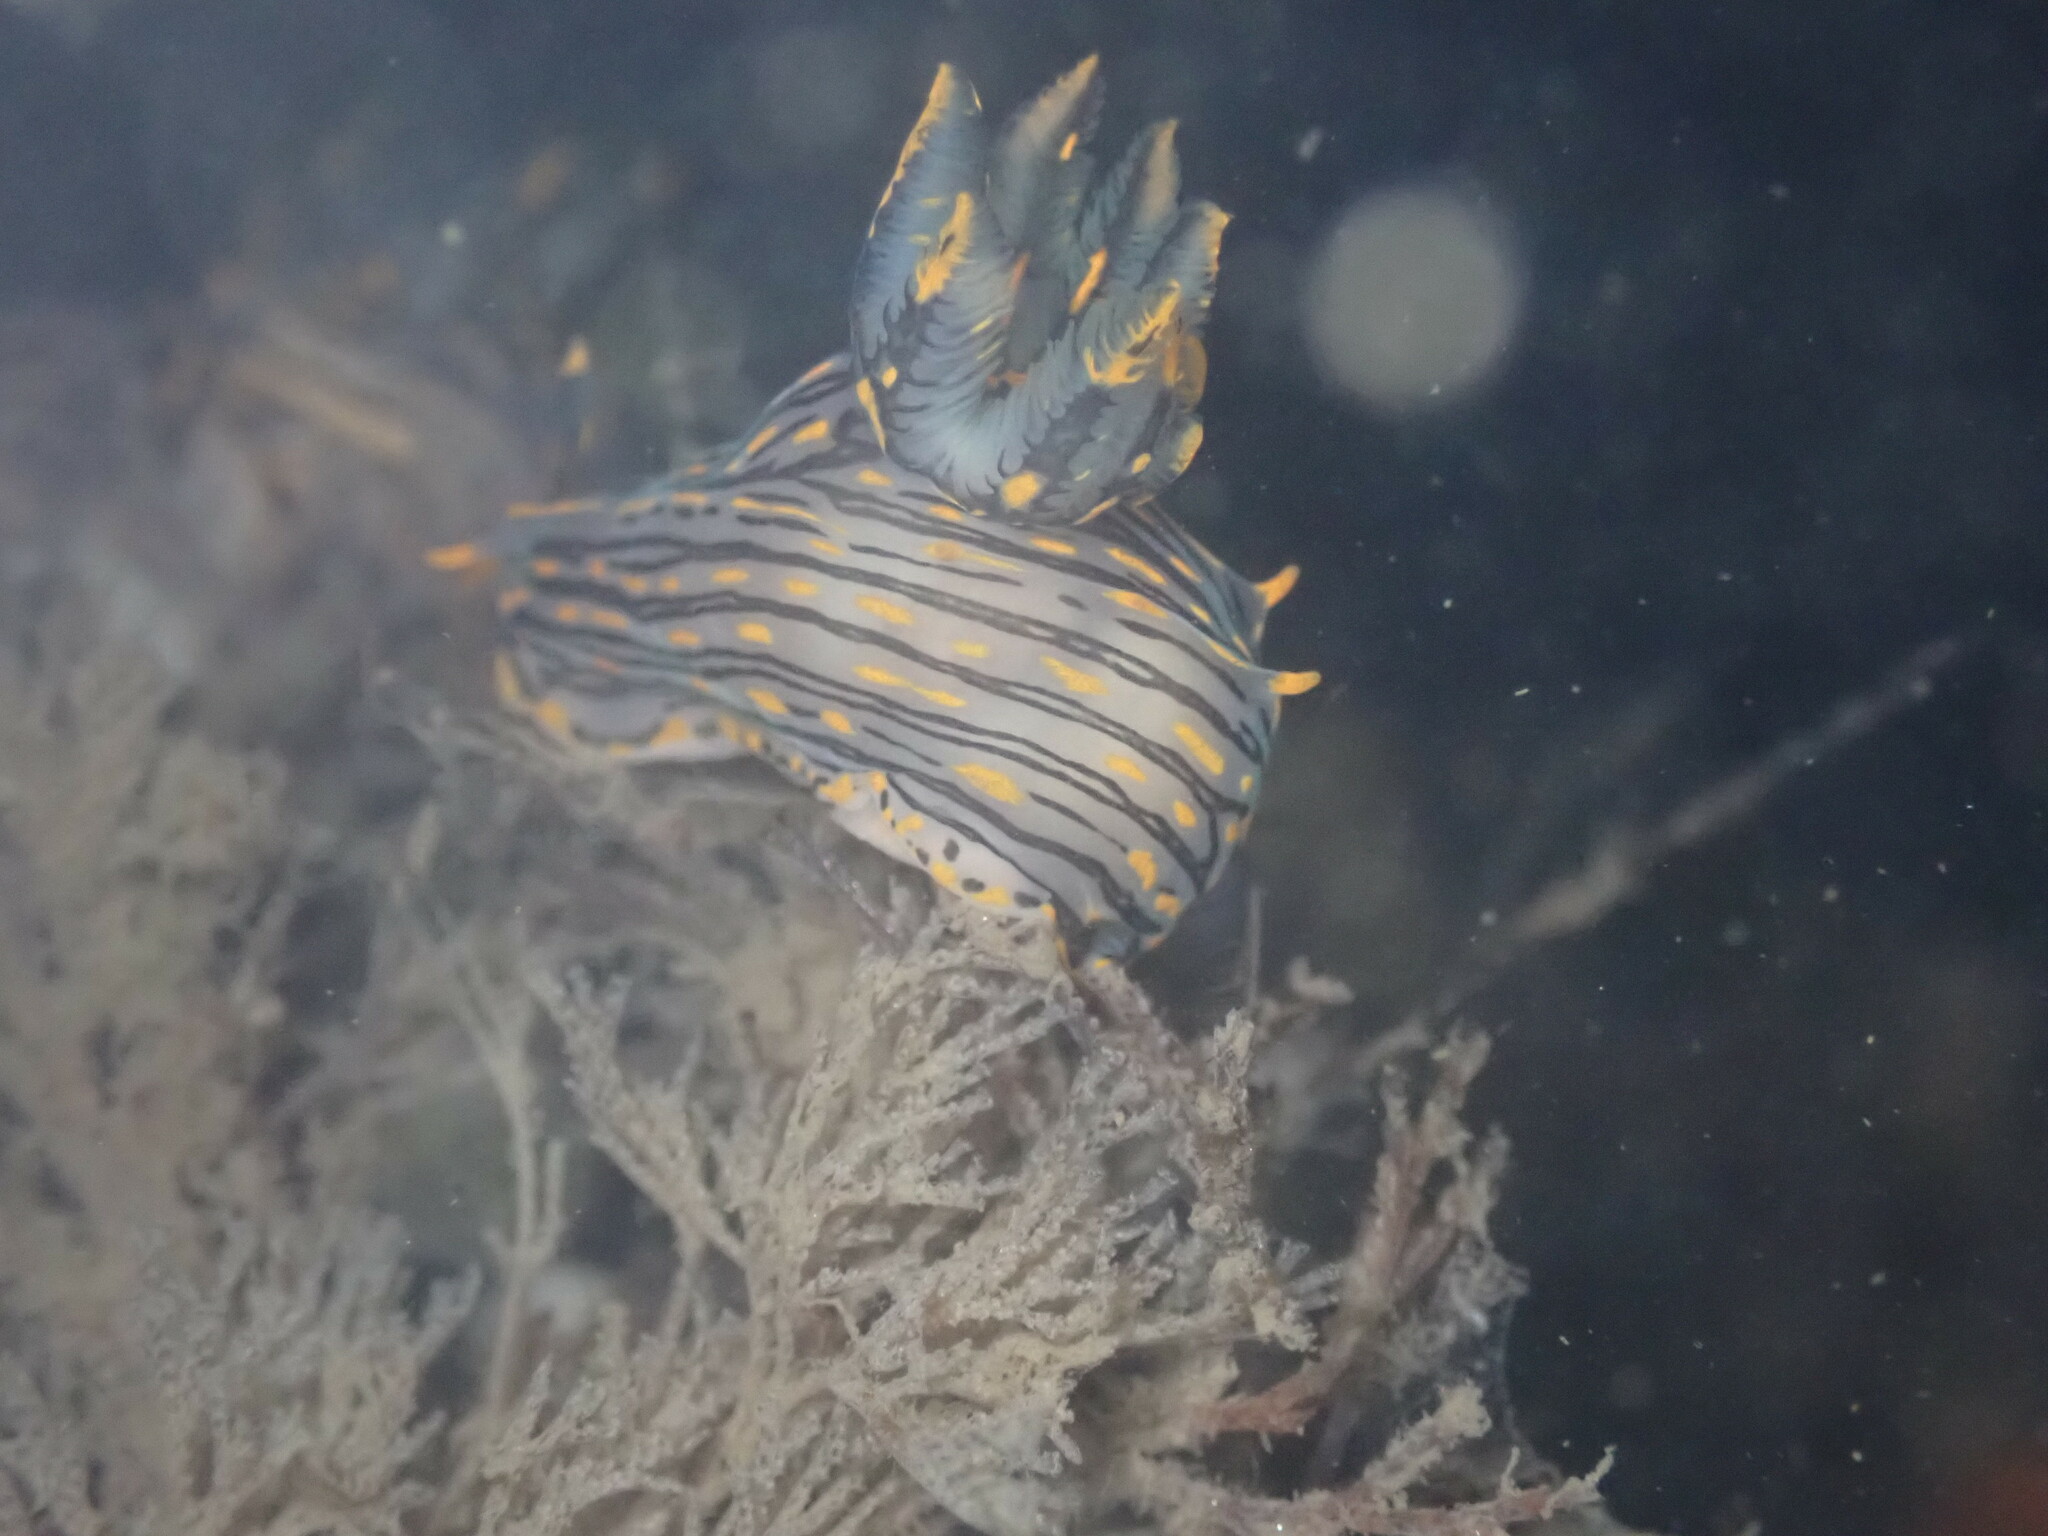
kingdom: Animalia
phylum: Mollusca
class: Gastropoda
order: Nudibranchia
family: Polyceridae
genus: Polycera
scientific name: Polycera atra
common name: Orange-spike polycera
